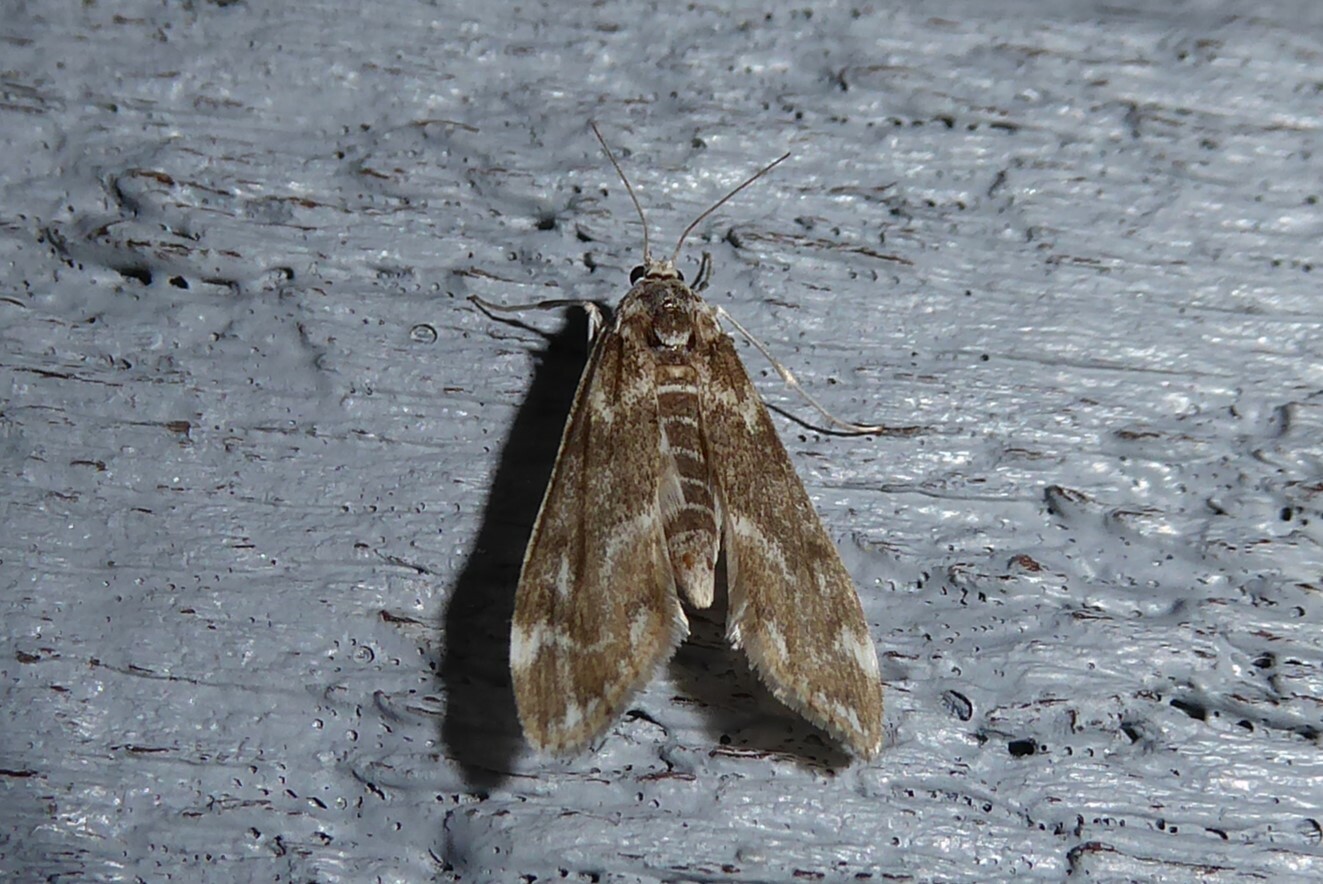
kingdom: Animalia
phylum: Arthropoda
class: Insecta
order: Lepidoptera
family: Crambidae
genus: Hygraula
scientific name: Hygraula nitens
